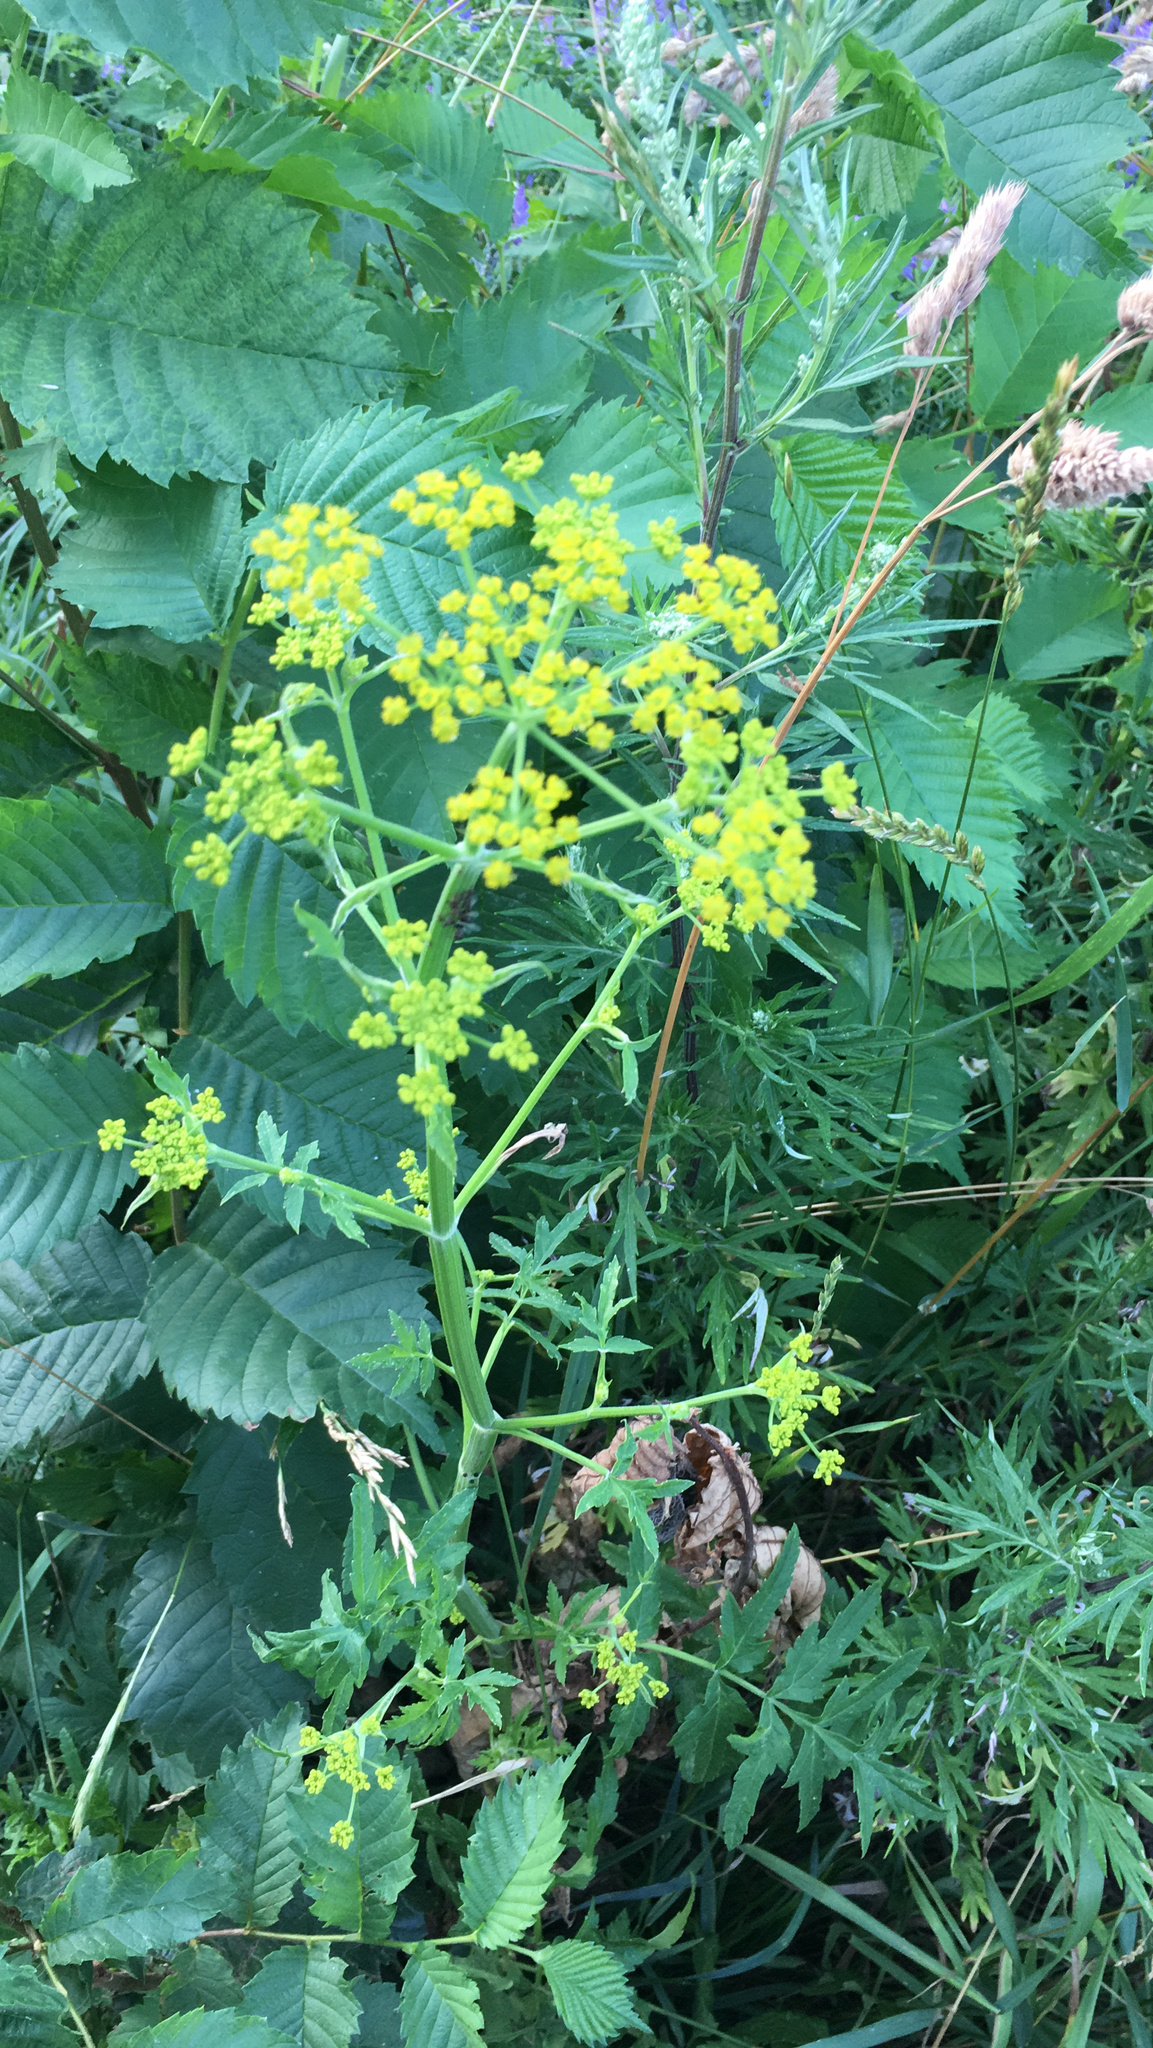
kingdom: Plantae
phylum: Tracheophyta
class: Magnoliopsida
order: Apiales
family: Apiaceae
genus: Pastinaca
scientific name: Pastinaca sativa
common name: Wild parsnip
